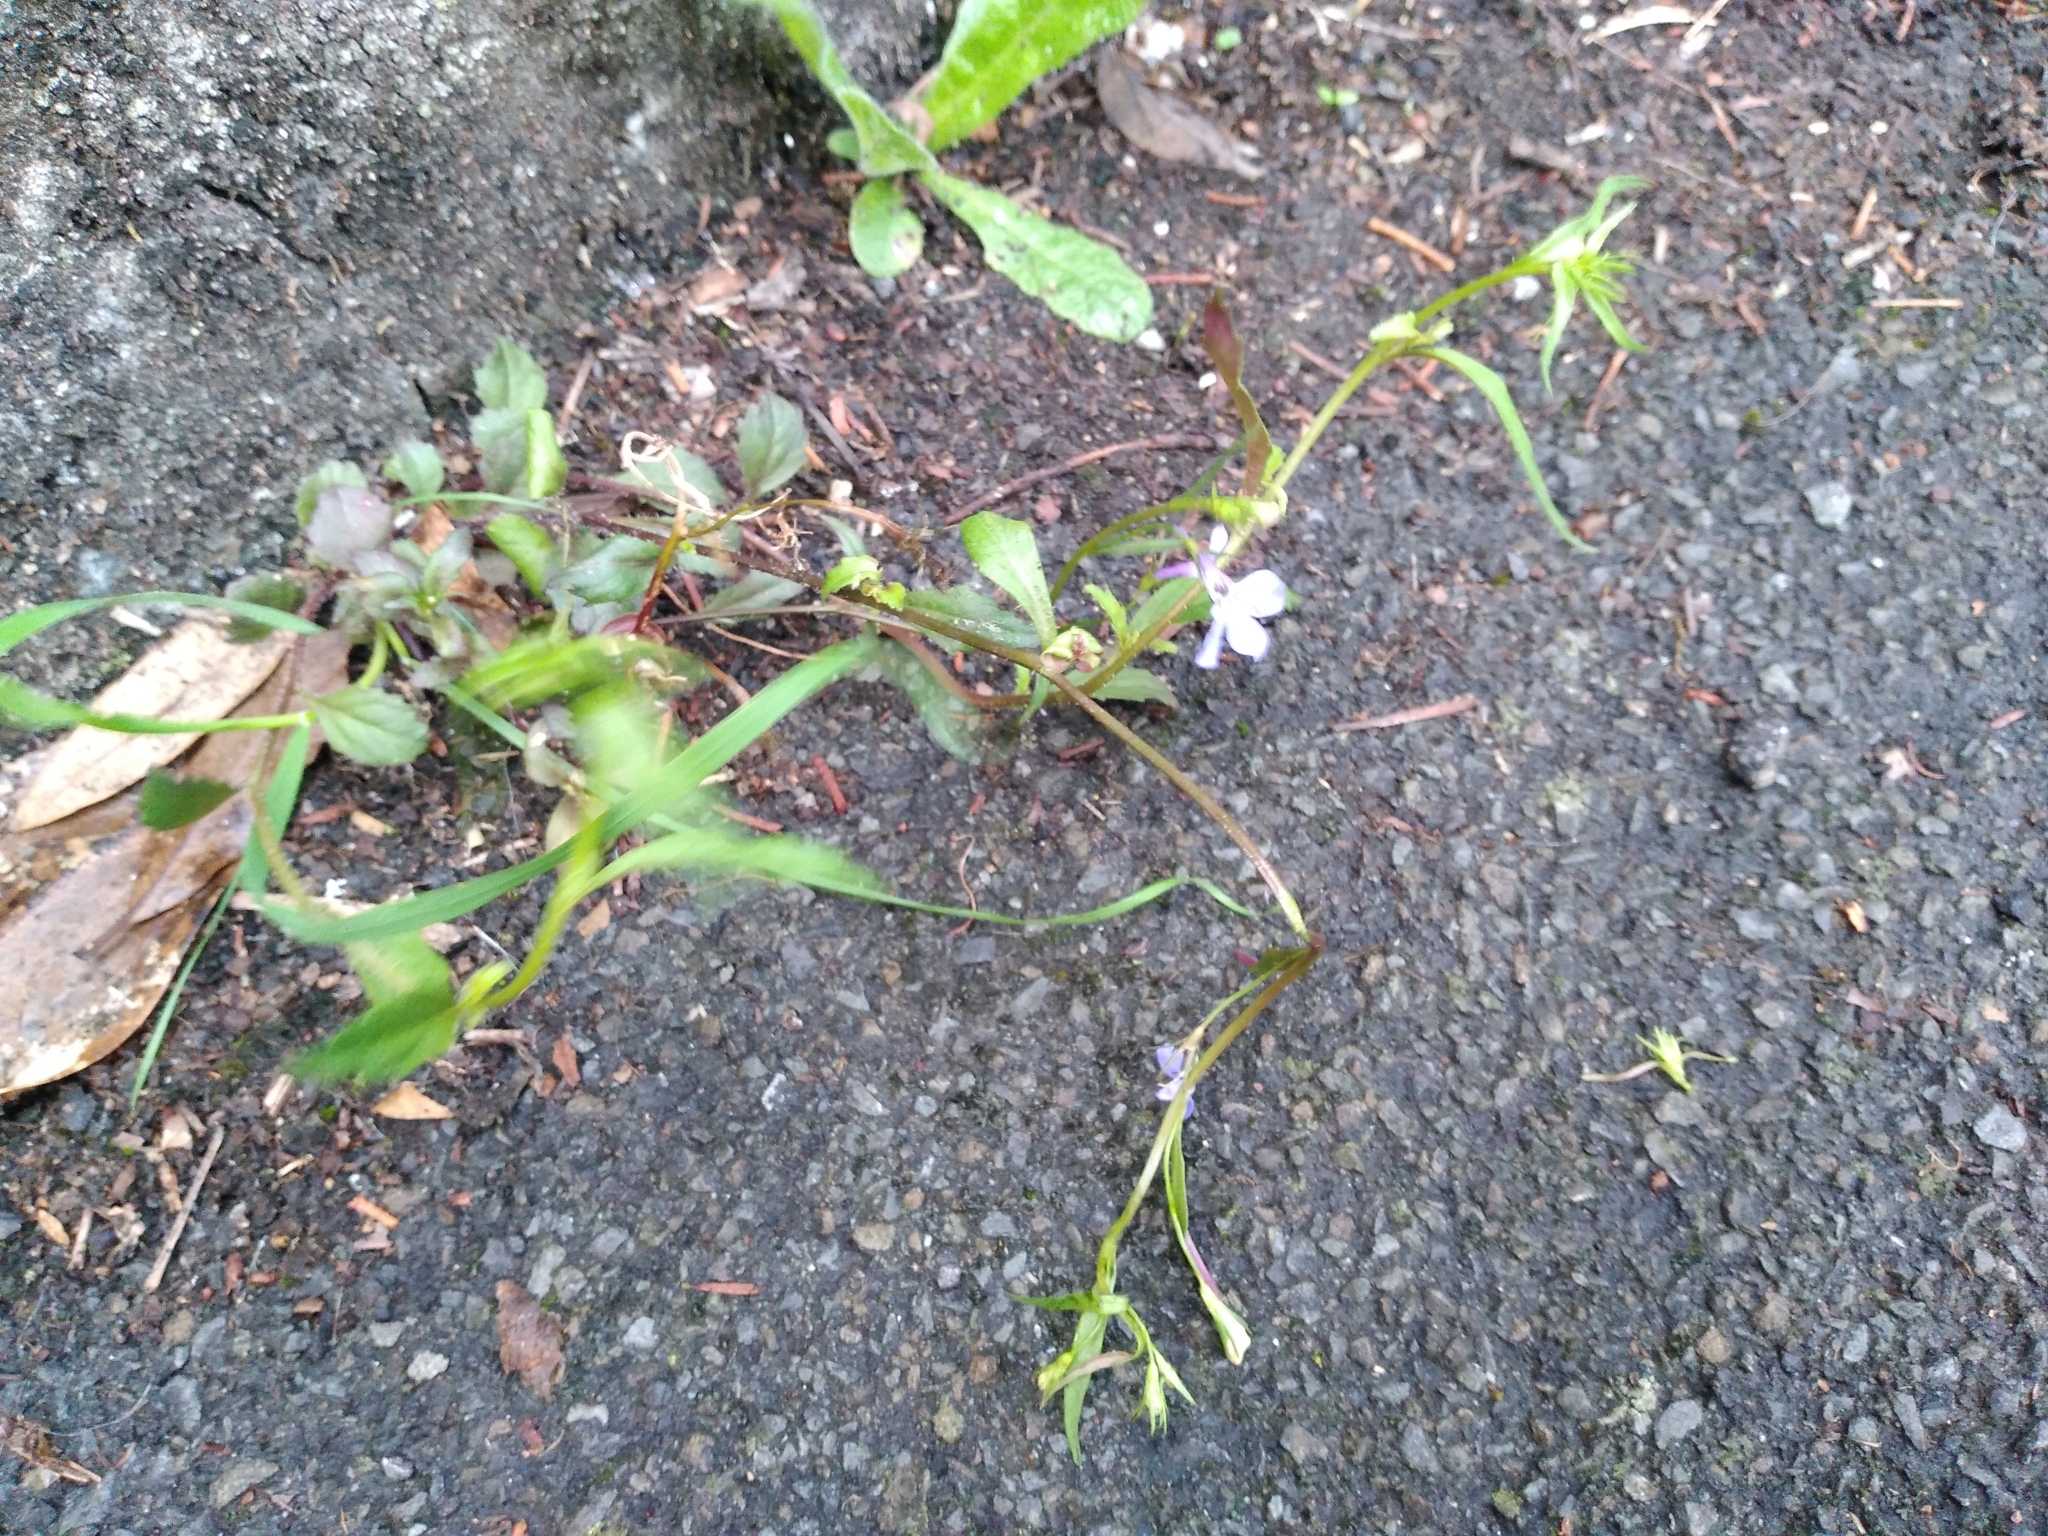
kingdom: Plantae
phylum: Tracheophyta
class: Magnoliopsida
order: Asterales
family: Campanulaceae
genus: Lobelia
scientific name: Lobelia erinus
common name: Edging lobelia
